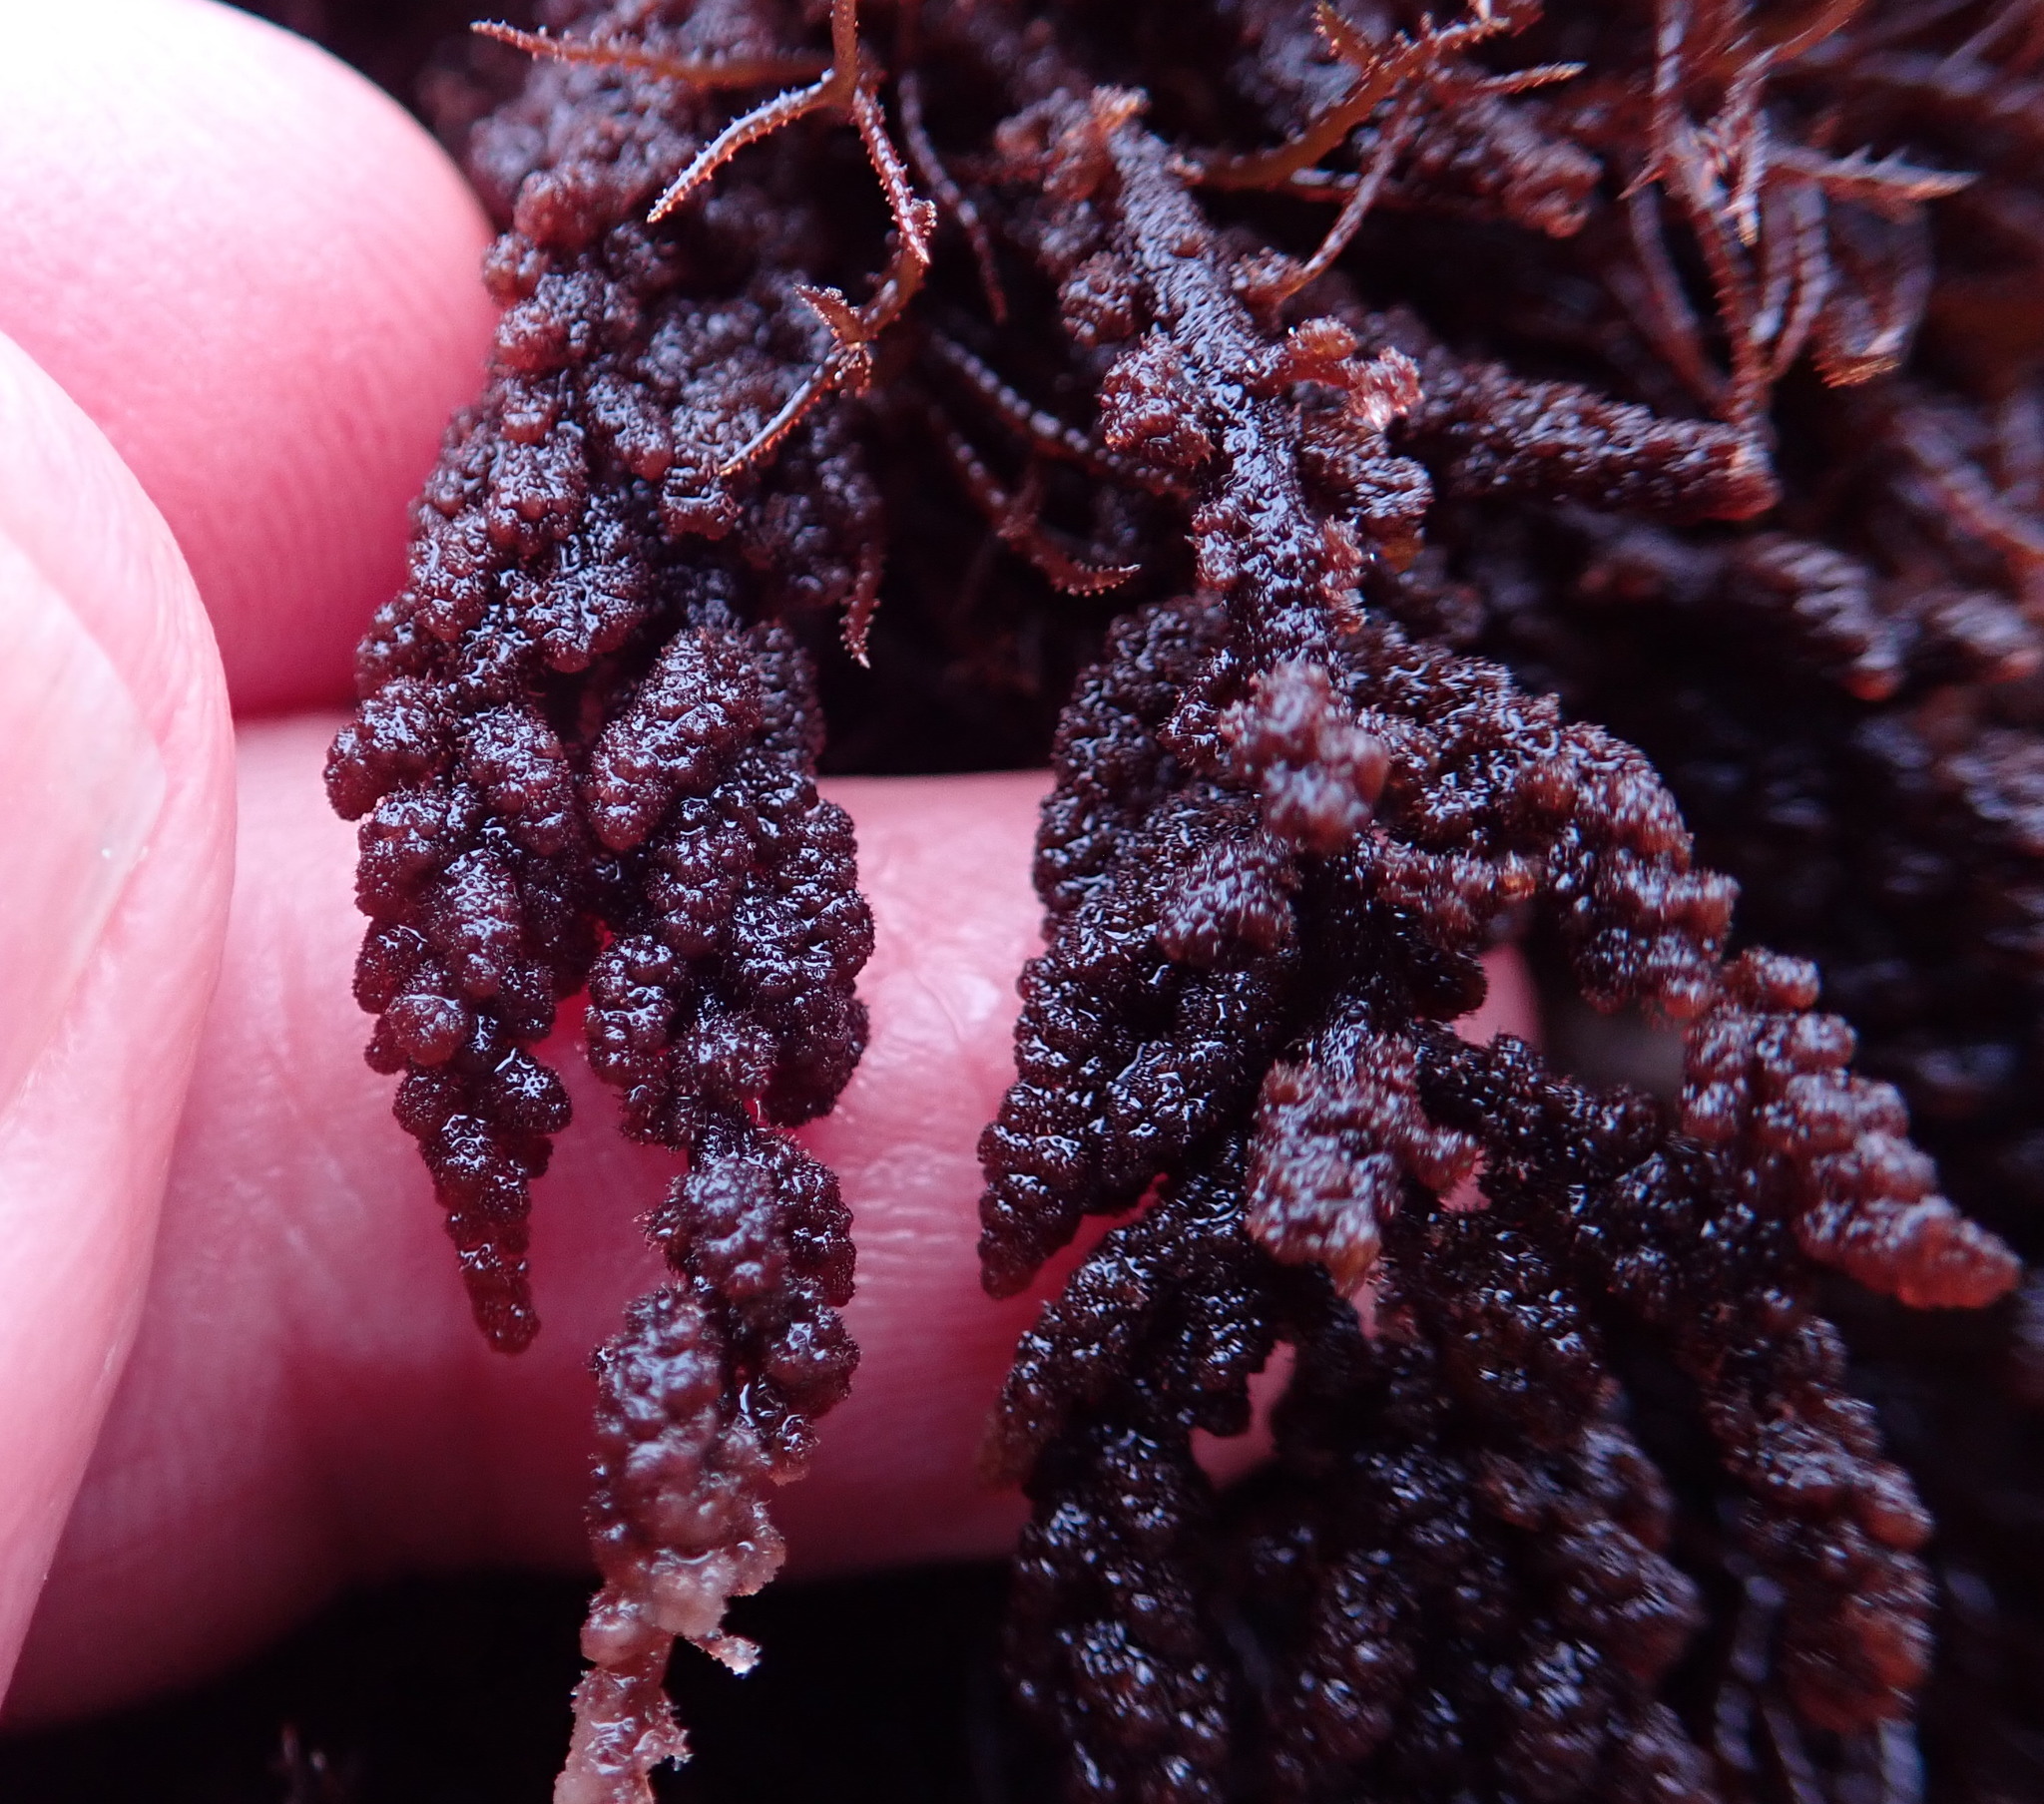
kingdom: Plantae
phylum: Rhodophyta
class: Florideophyceae
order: Ceramiales
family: Callithamniaceae
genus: Callithamnion
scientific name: Callithamnion pikeanum
